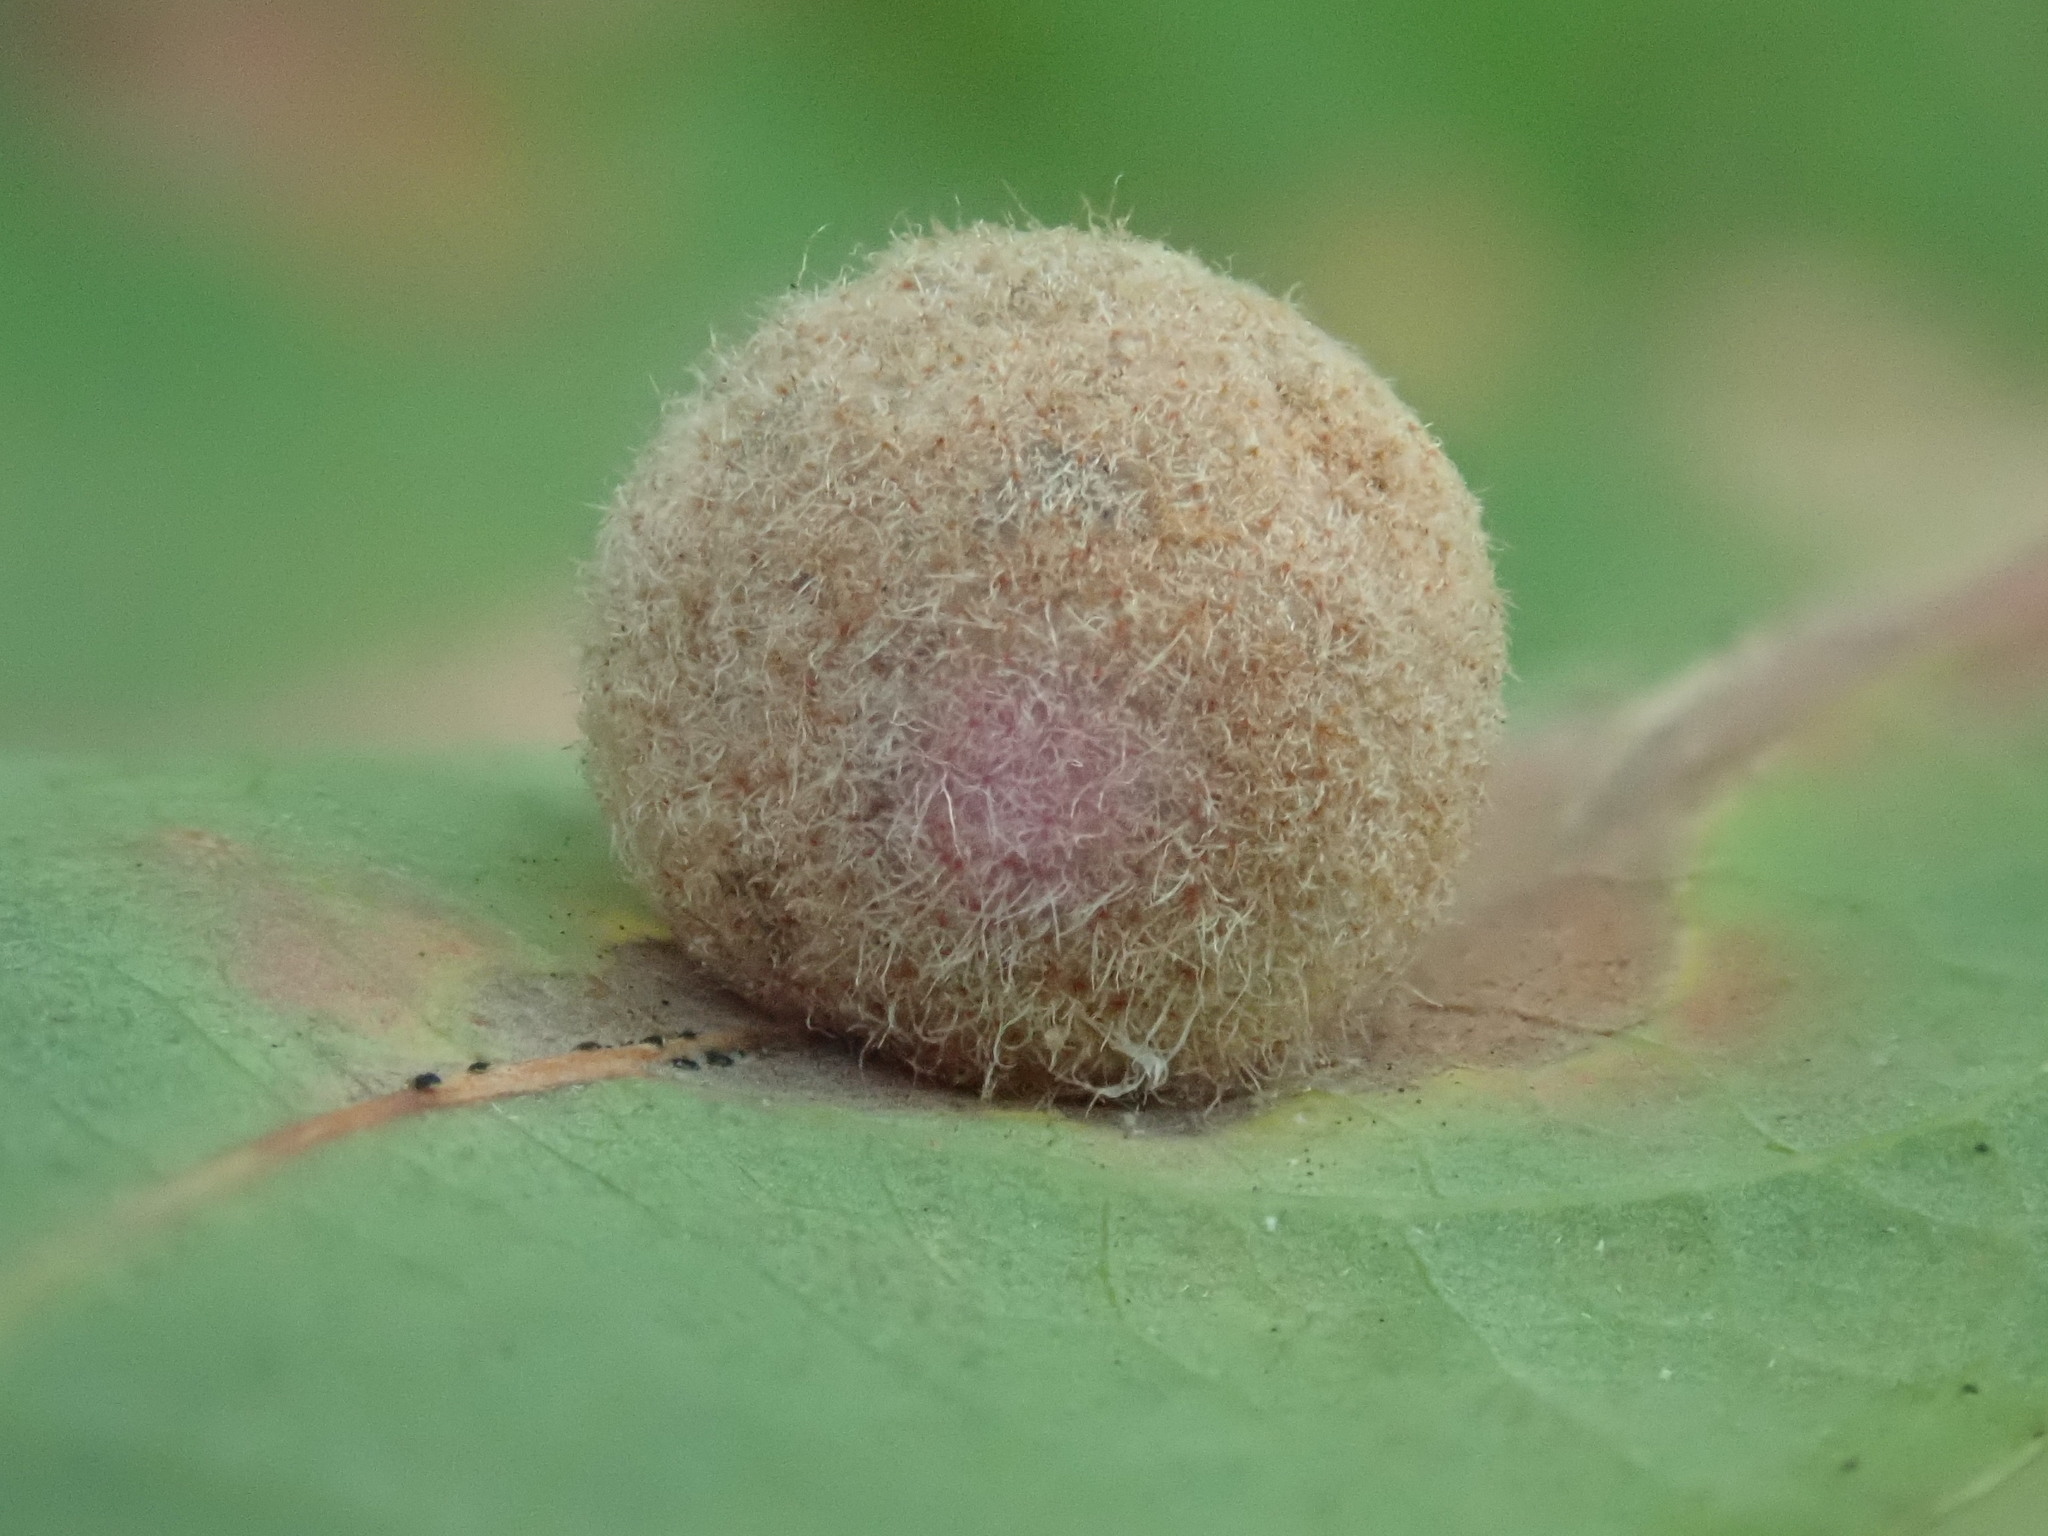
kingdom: Animalia
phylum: Arthropoda
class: Insecta
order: Hymenoptera
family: Cynipidae
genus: Philonix
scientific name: Philonix fulvicollis
